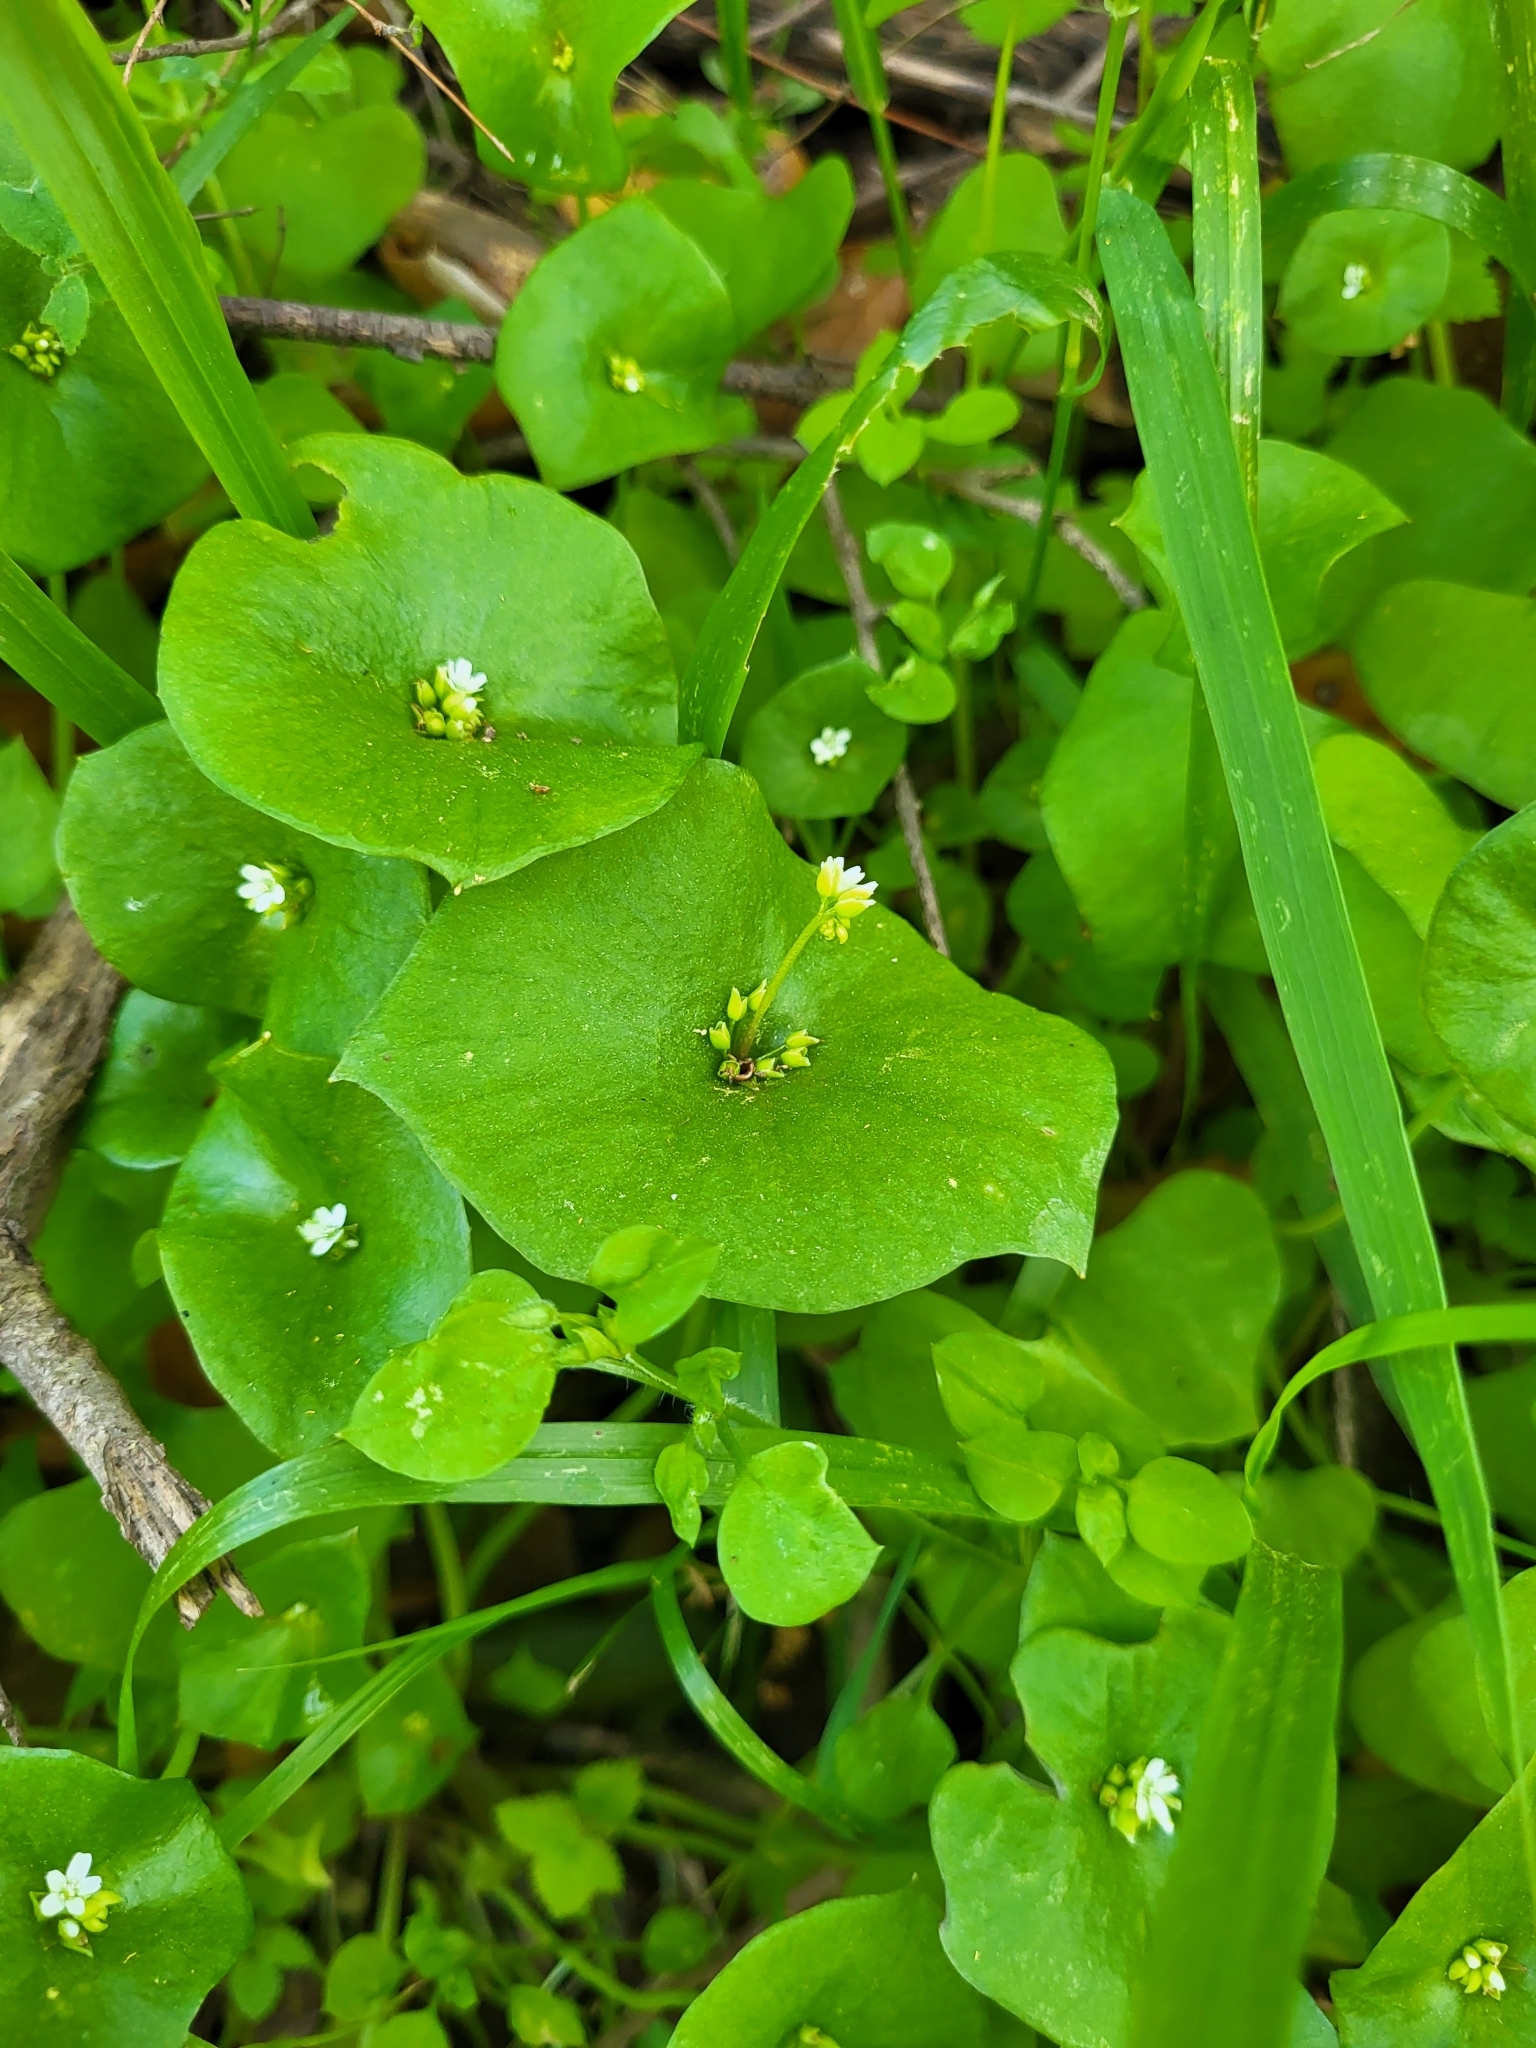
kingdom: Plantae
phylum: Tracheophyta
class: Magnoliopsida
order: Caryophyllales
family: Montiaceae
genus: Claytonia
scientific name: Claytonia perfoliata
